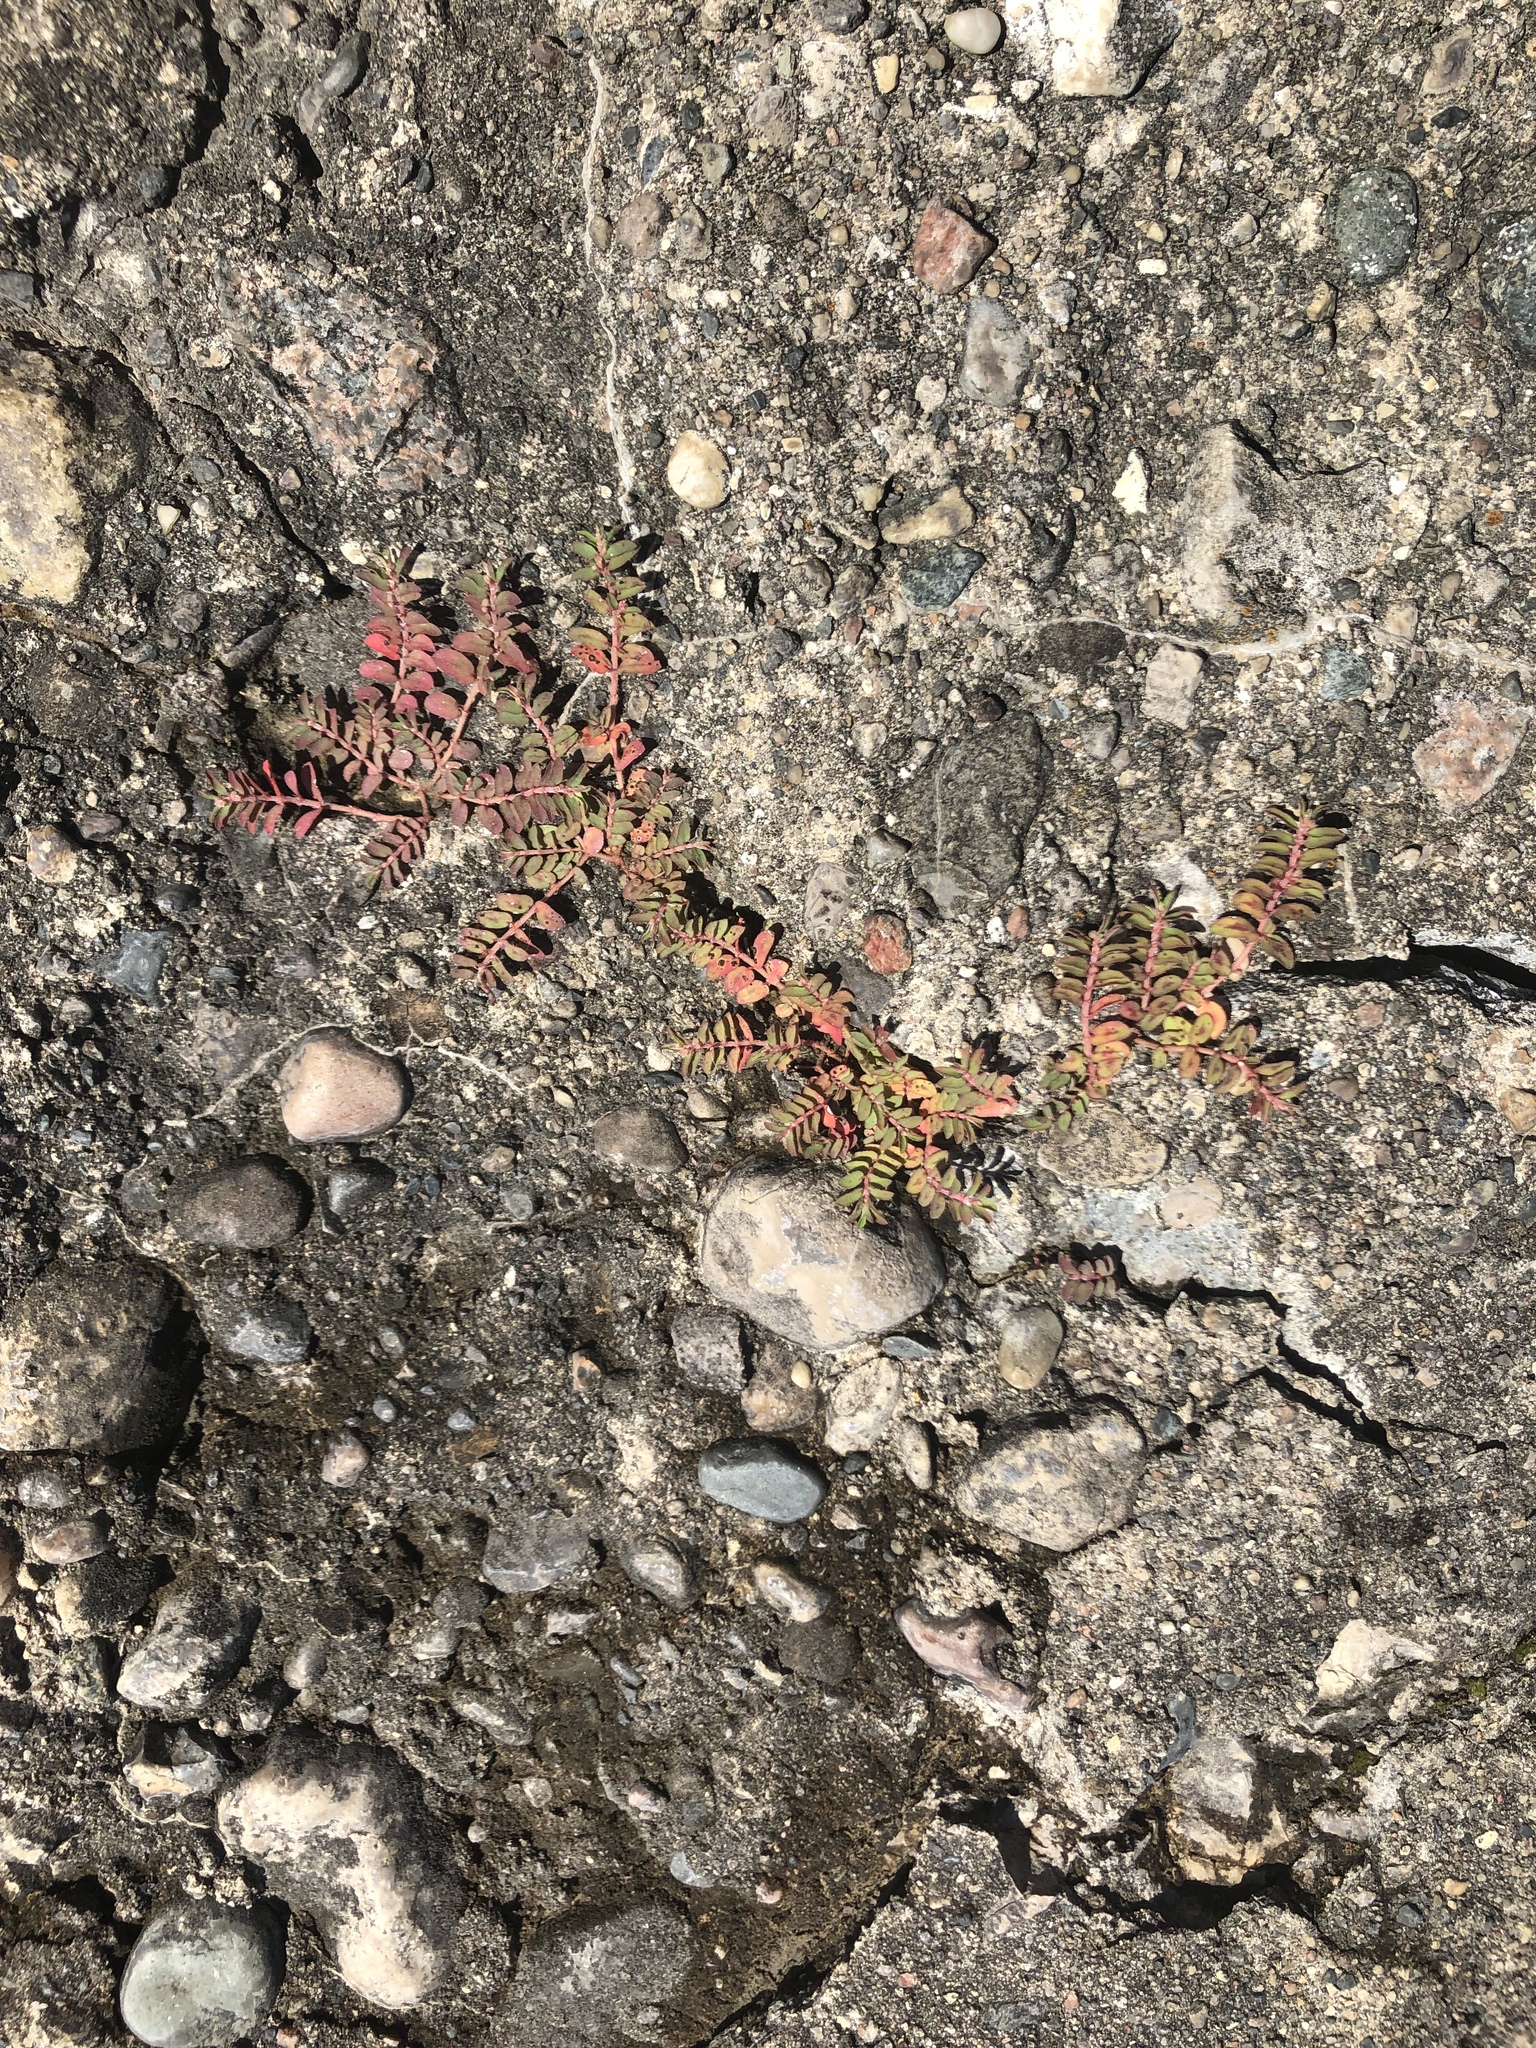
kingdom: Plantae
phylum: Tracheophyta
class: Magnoliopsida
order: Malpighiales
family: Euphorbiaceae
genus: Euphorbia
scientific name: Euphorbia maculata
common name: Spotted spurge
